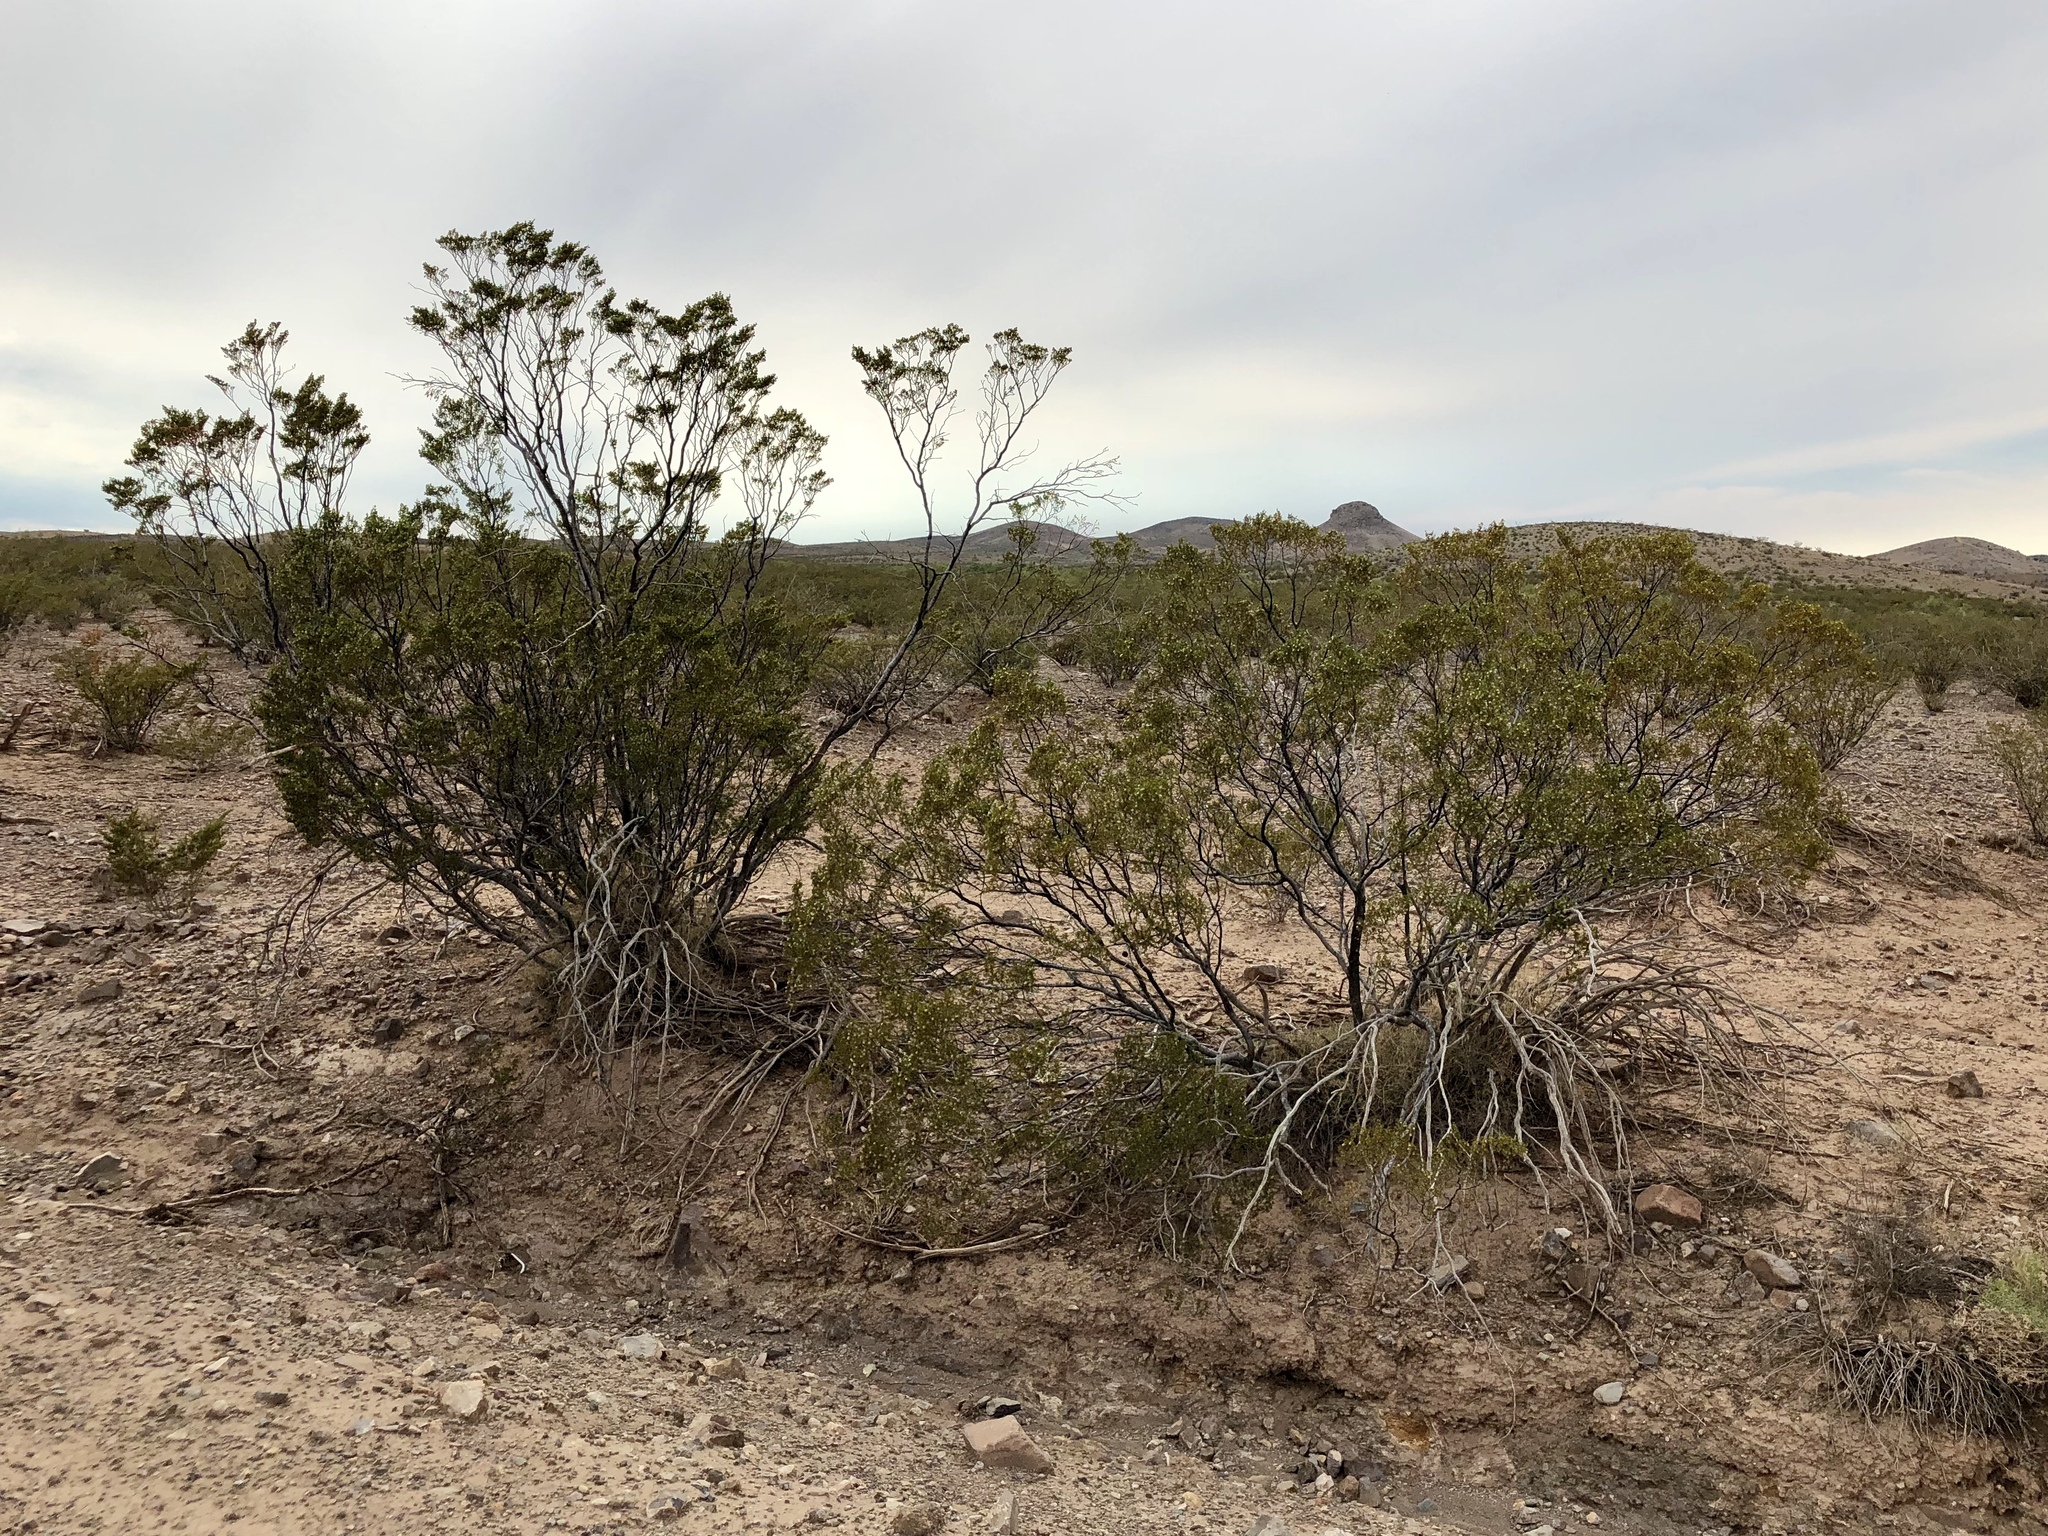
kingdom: Plantae
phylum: Tracheophyta
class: Magnoliopsida
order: Zygophyllales
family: Zygophyllaceae
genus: Larrea
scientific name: Larrea tridentata
